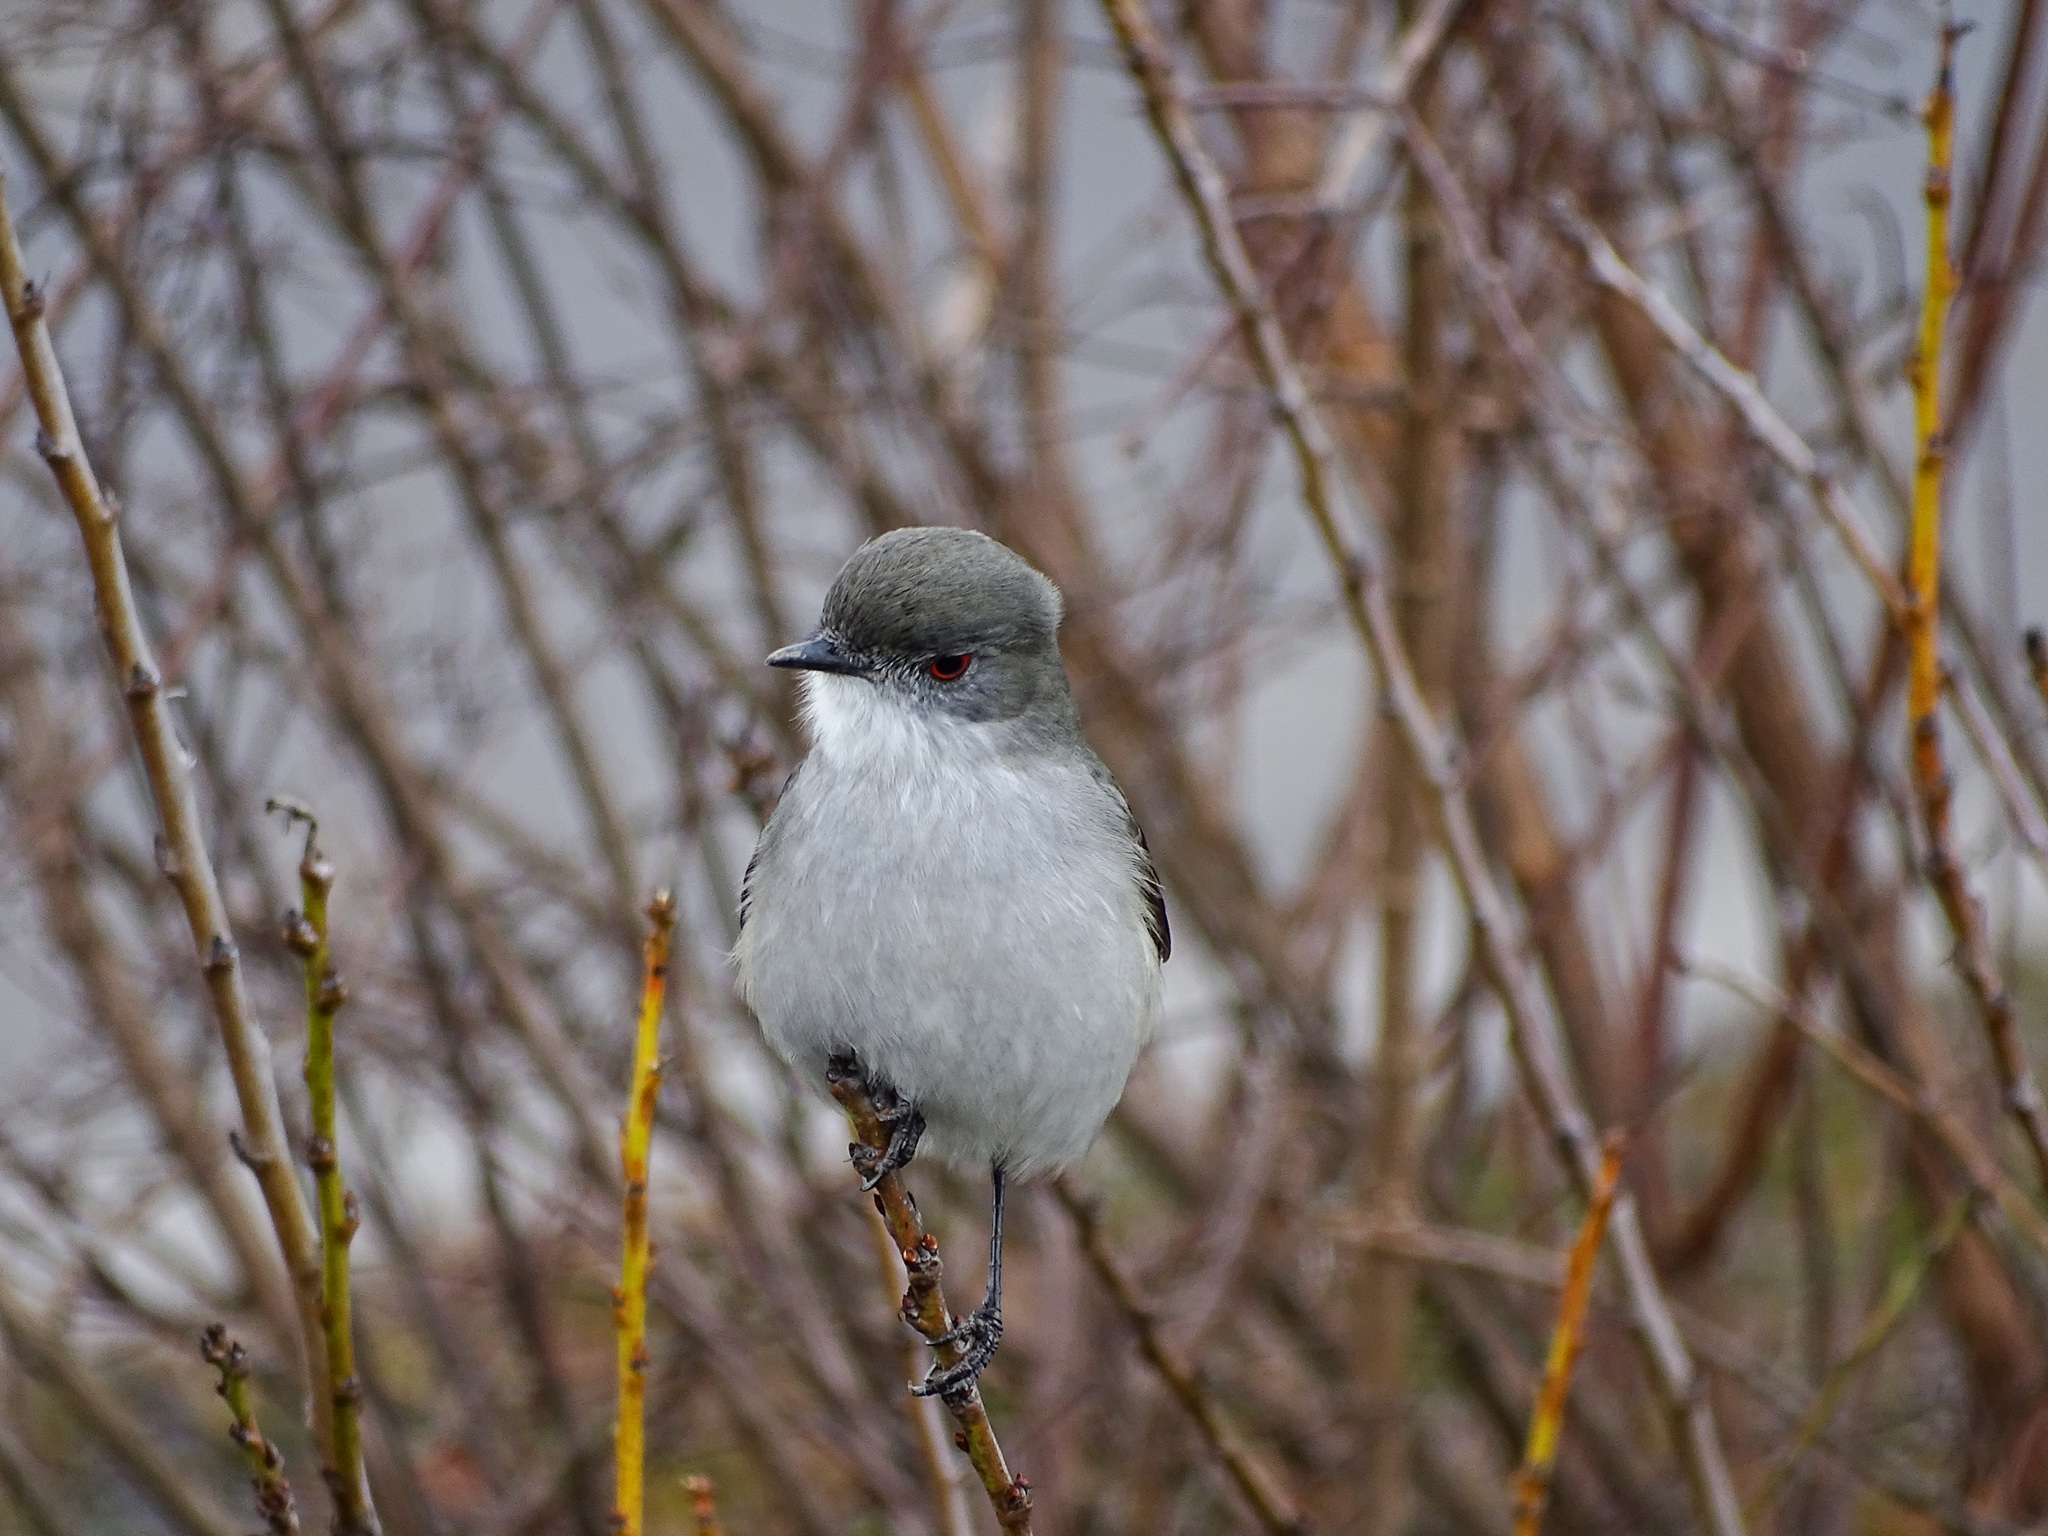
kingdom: Animalia
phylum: Chordata
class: Aves
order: Passeriformes
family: Tyrannidae
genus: Xolmis
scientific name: Xolmis pyrope
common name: Fire-eyed diucon
